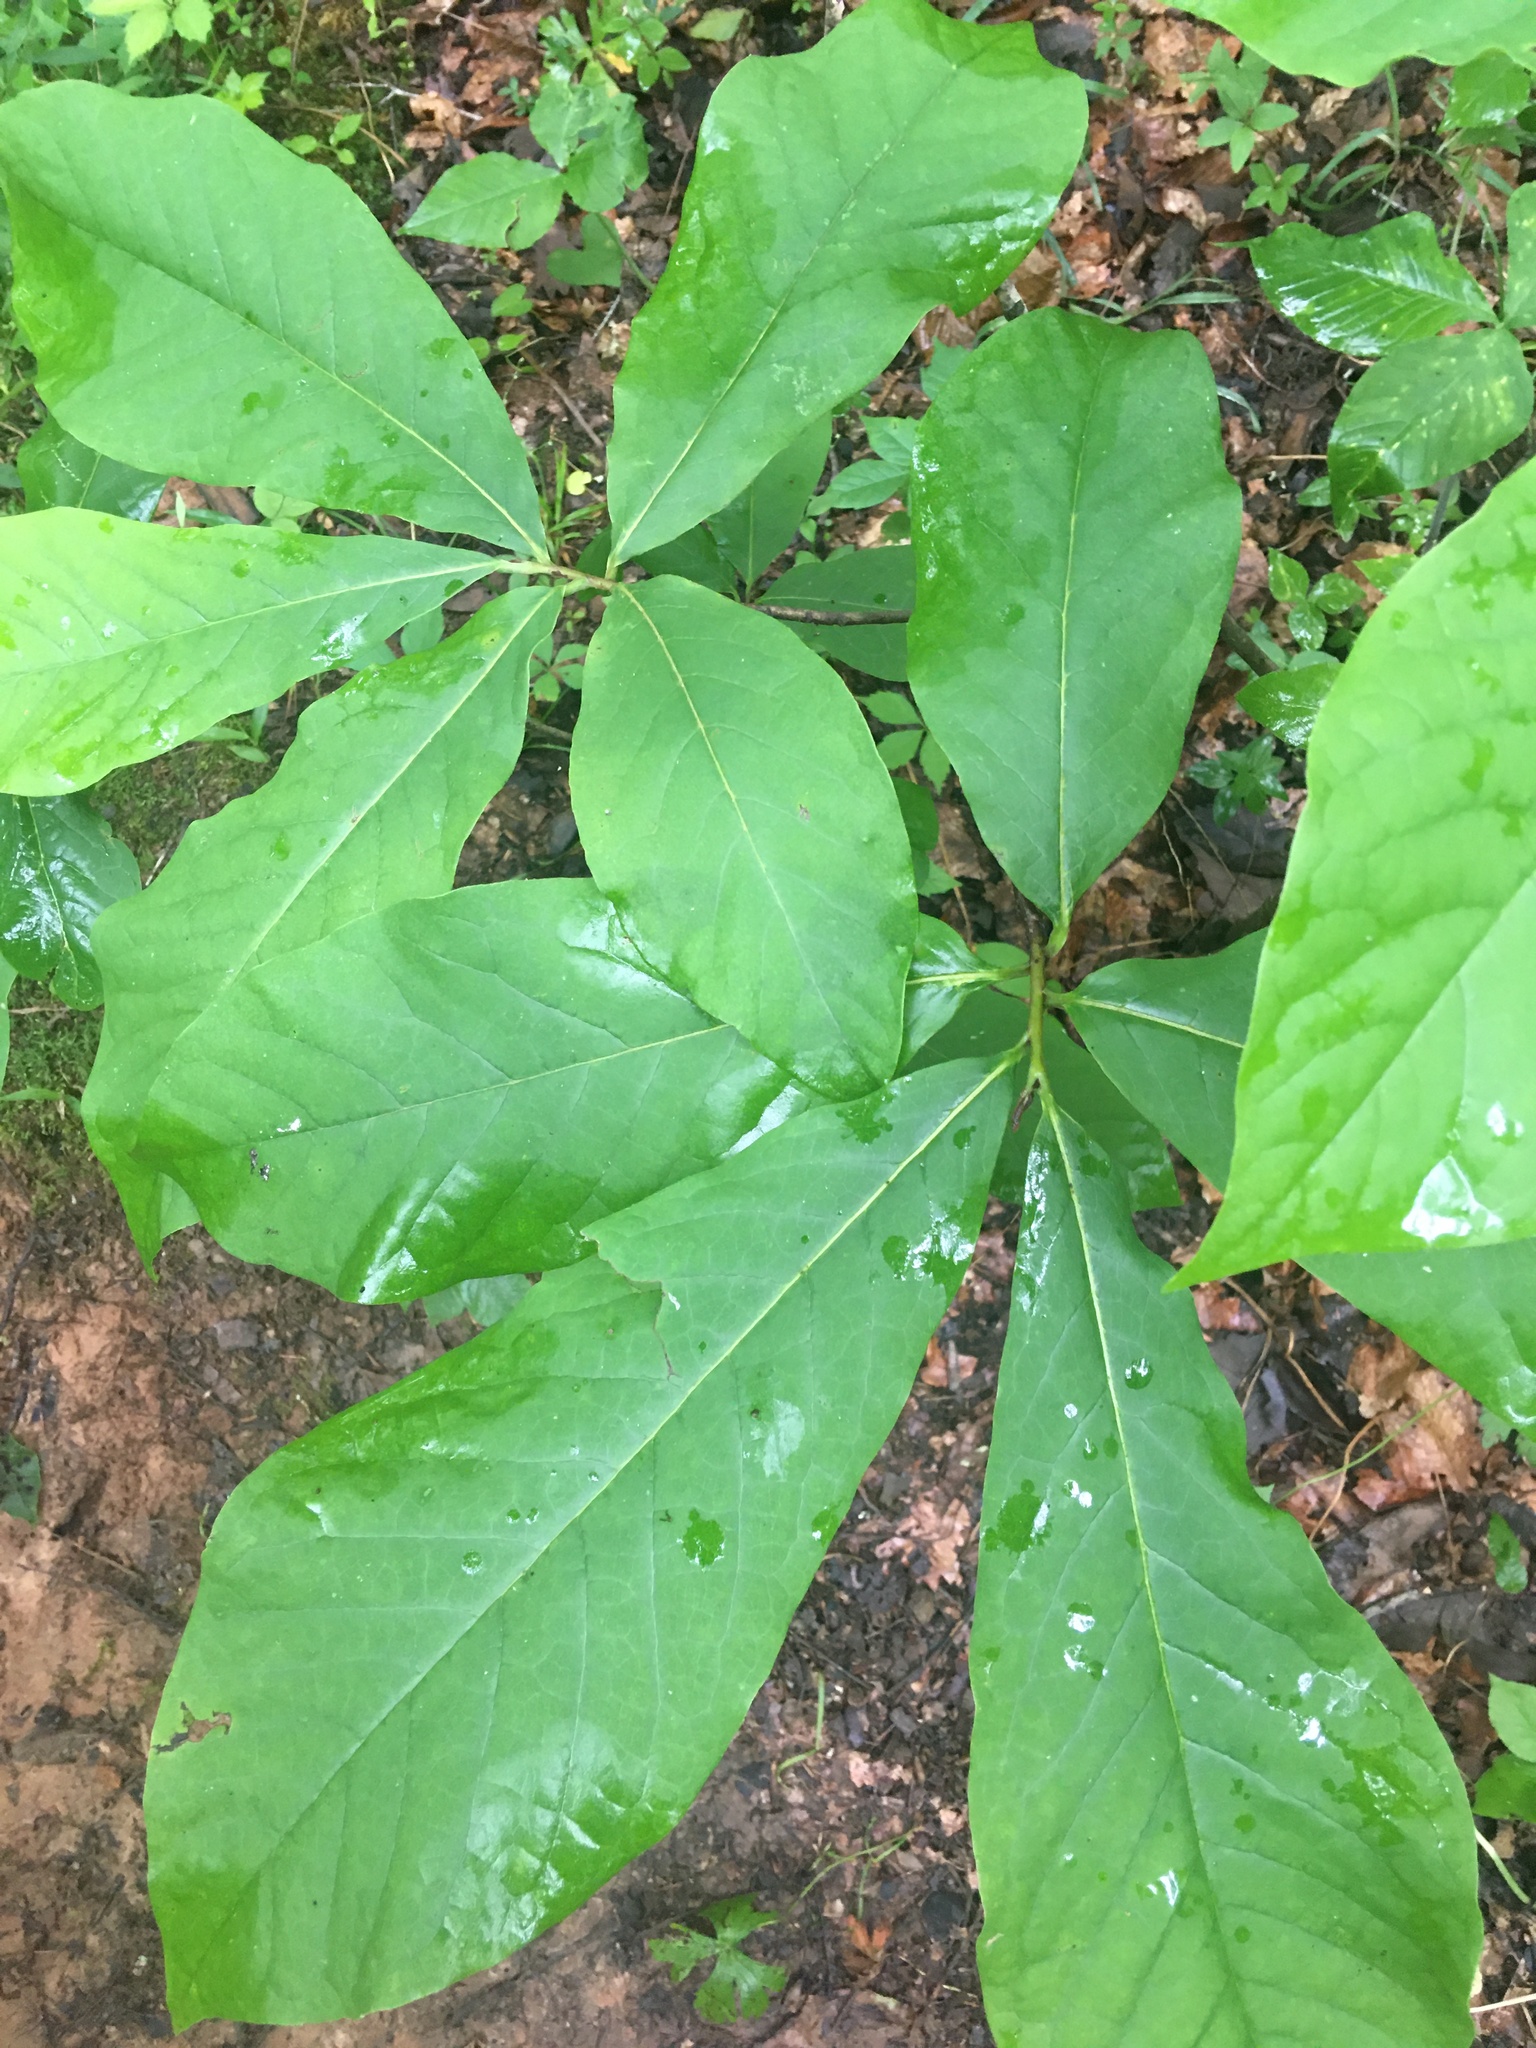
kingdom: Plantae
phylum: Tracheophyta
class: Magnoliopsida
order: Magnoliales
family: Annonaceae
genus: Asimina
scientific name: Asimina triloba
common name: Dog-banana
